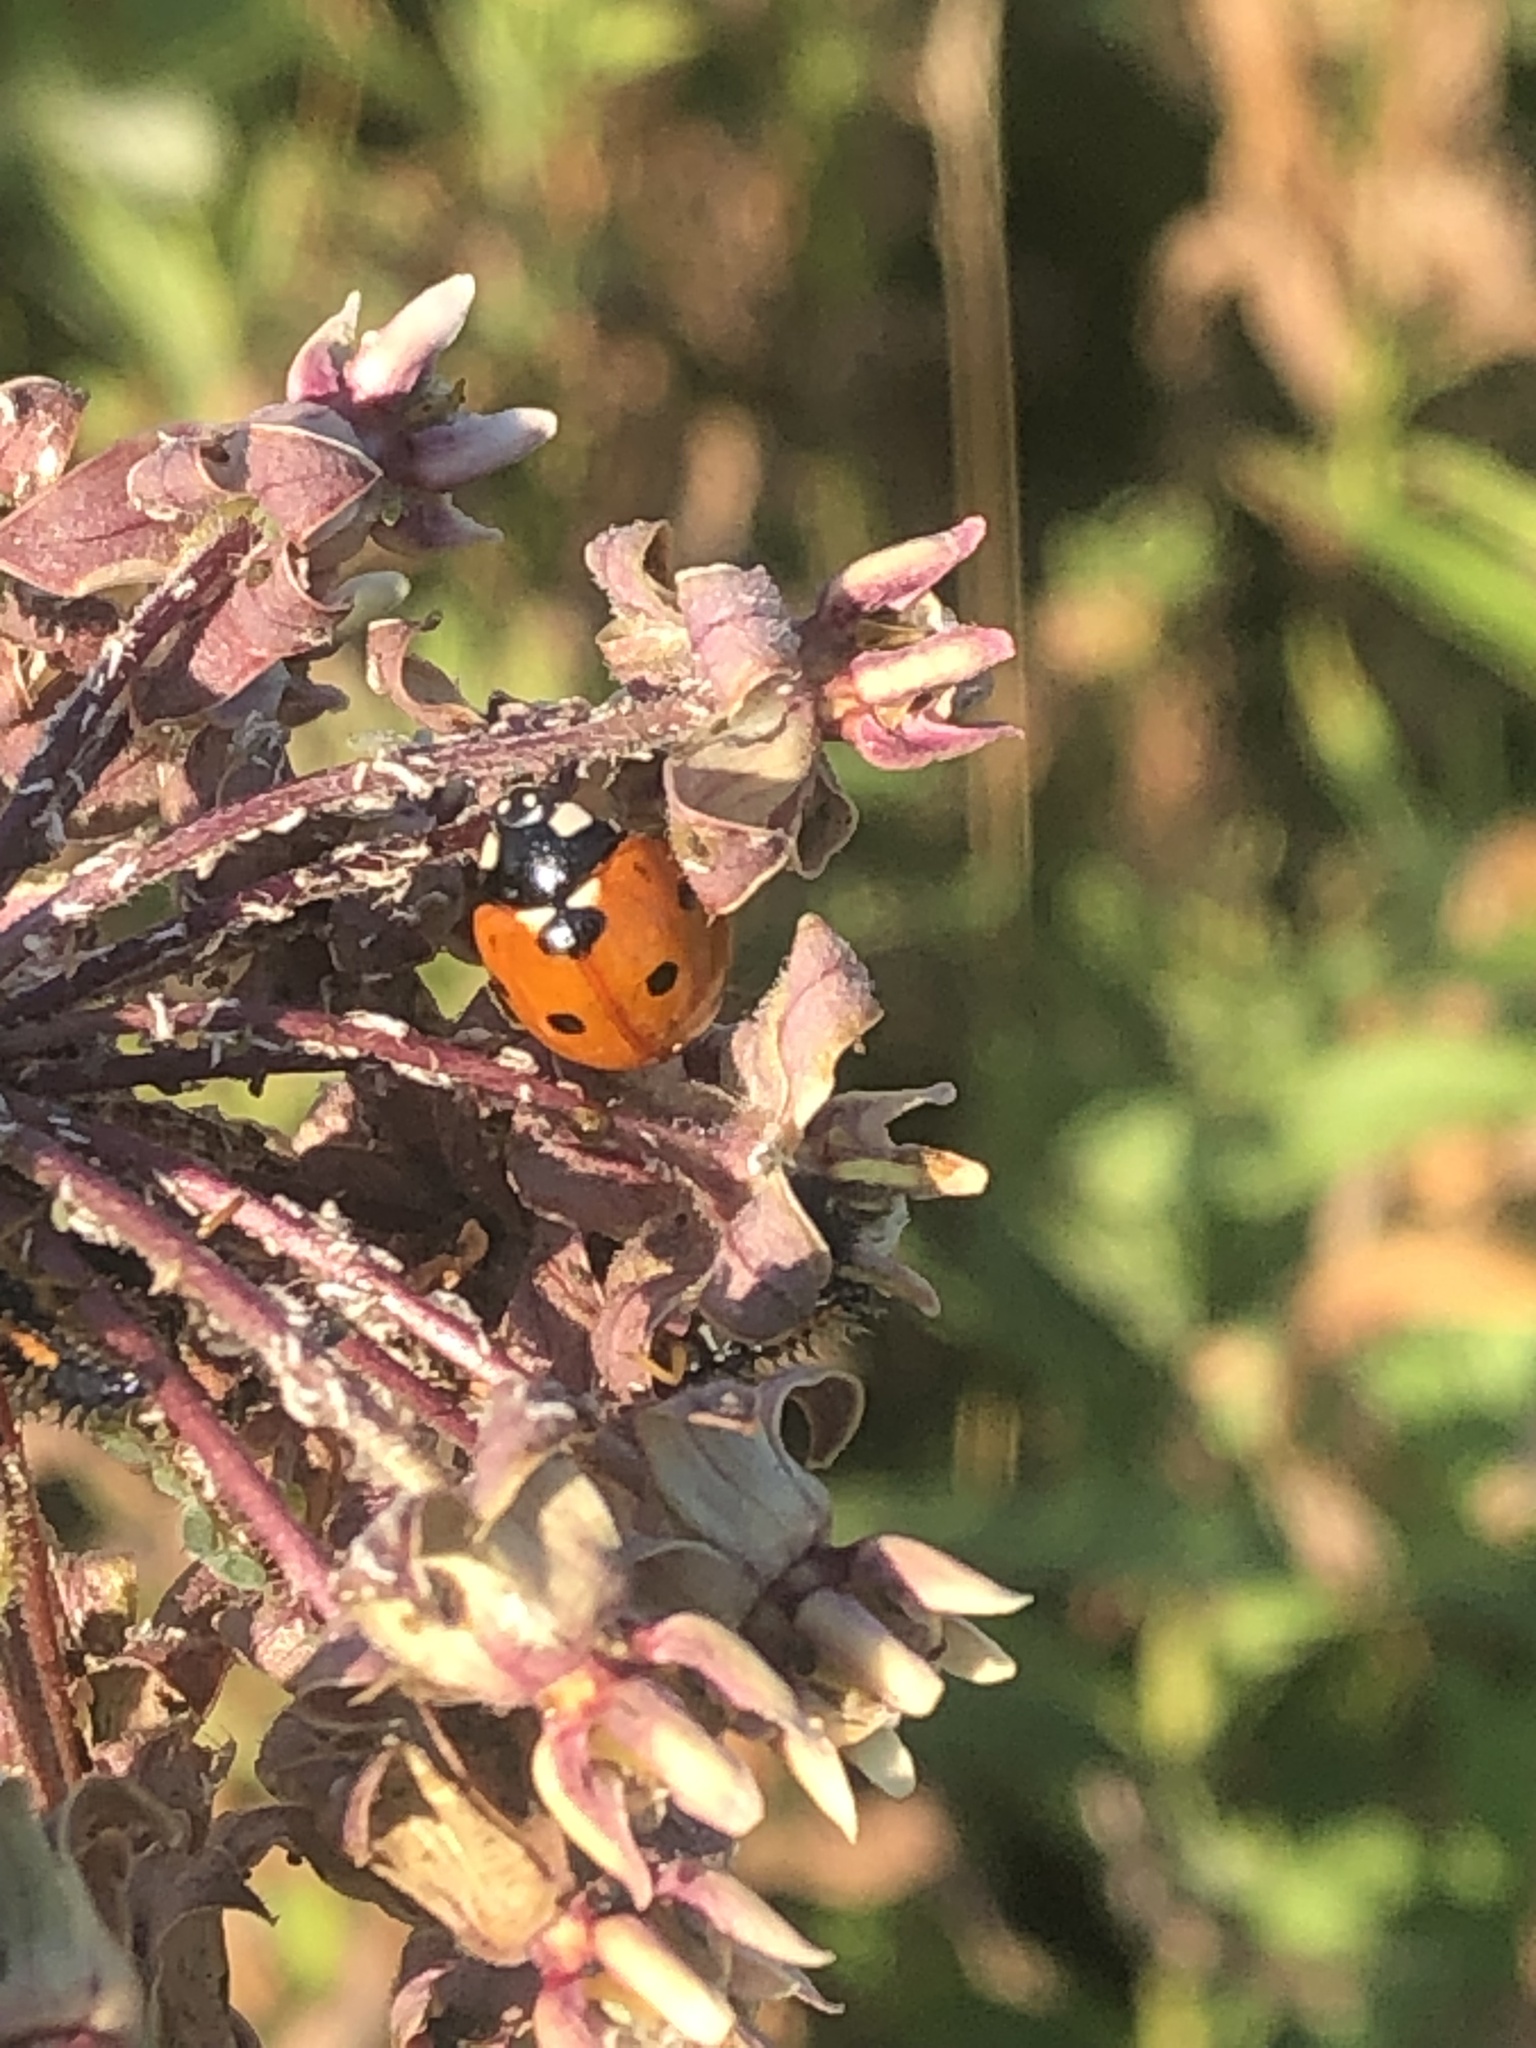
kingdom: Animalia
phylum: Arthropoda
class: Insecta
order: Coleoptera
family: Coccinellidae
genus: Coccinella
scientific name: Coccinella septempunctata
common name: Sevenspotted lady beetle
